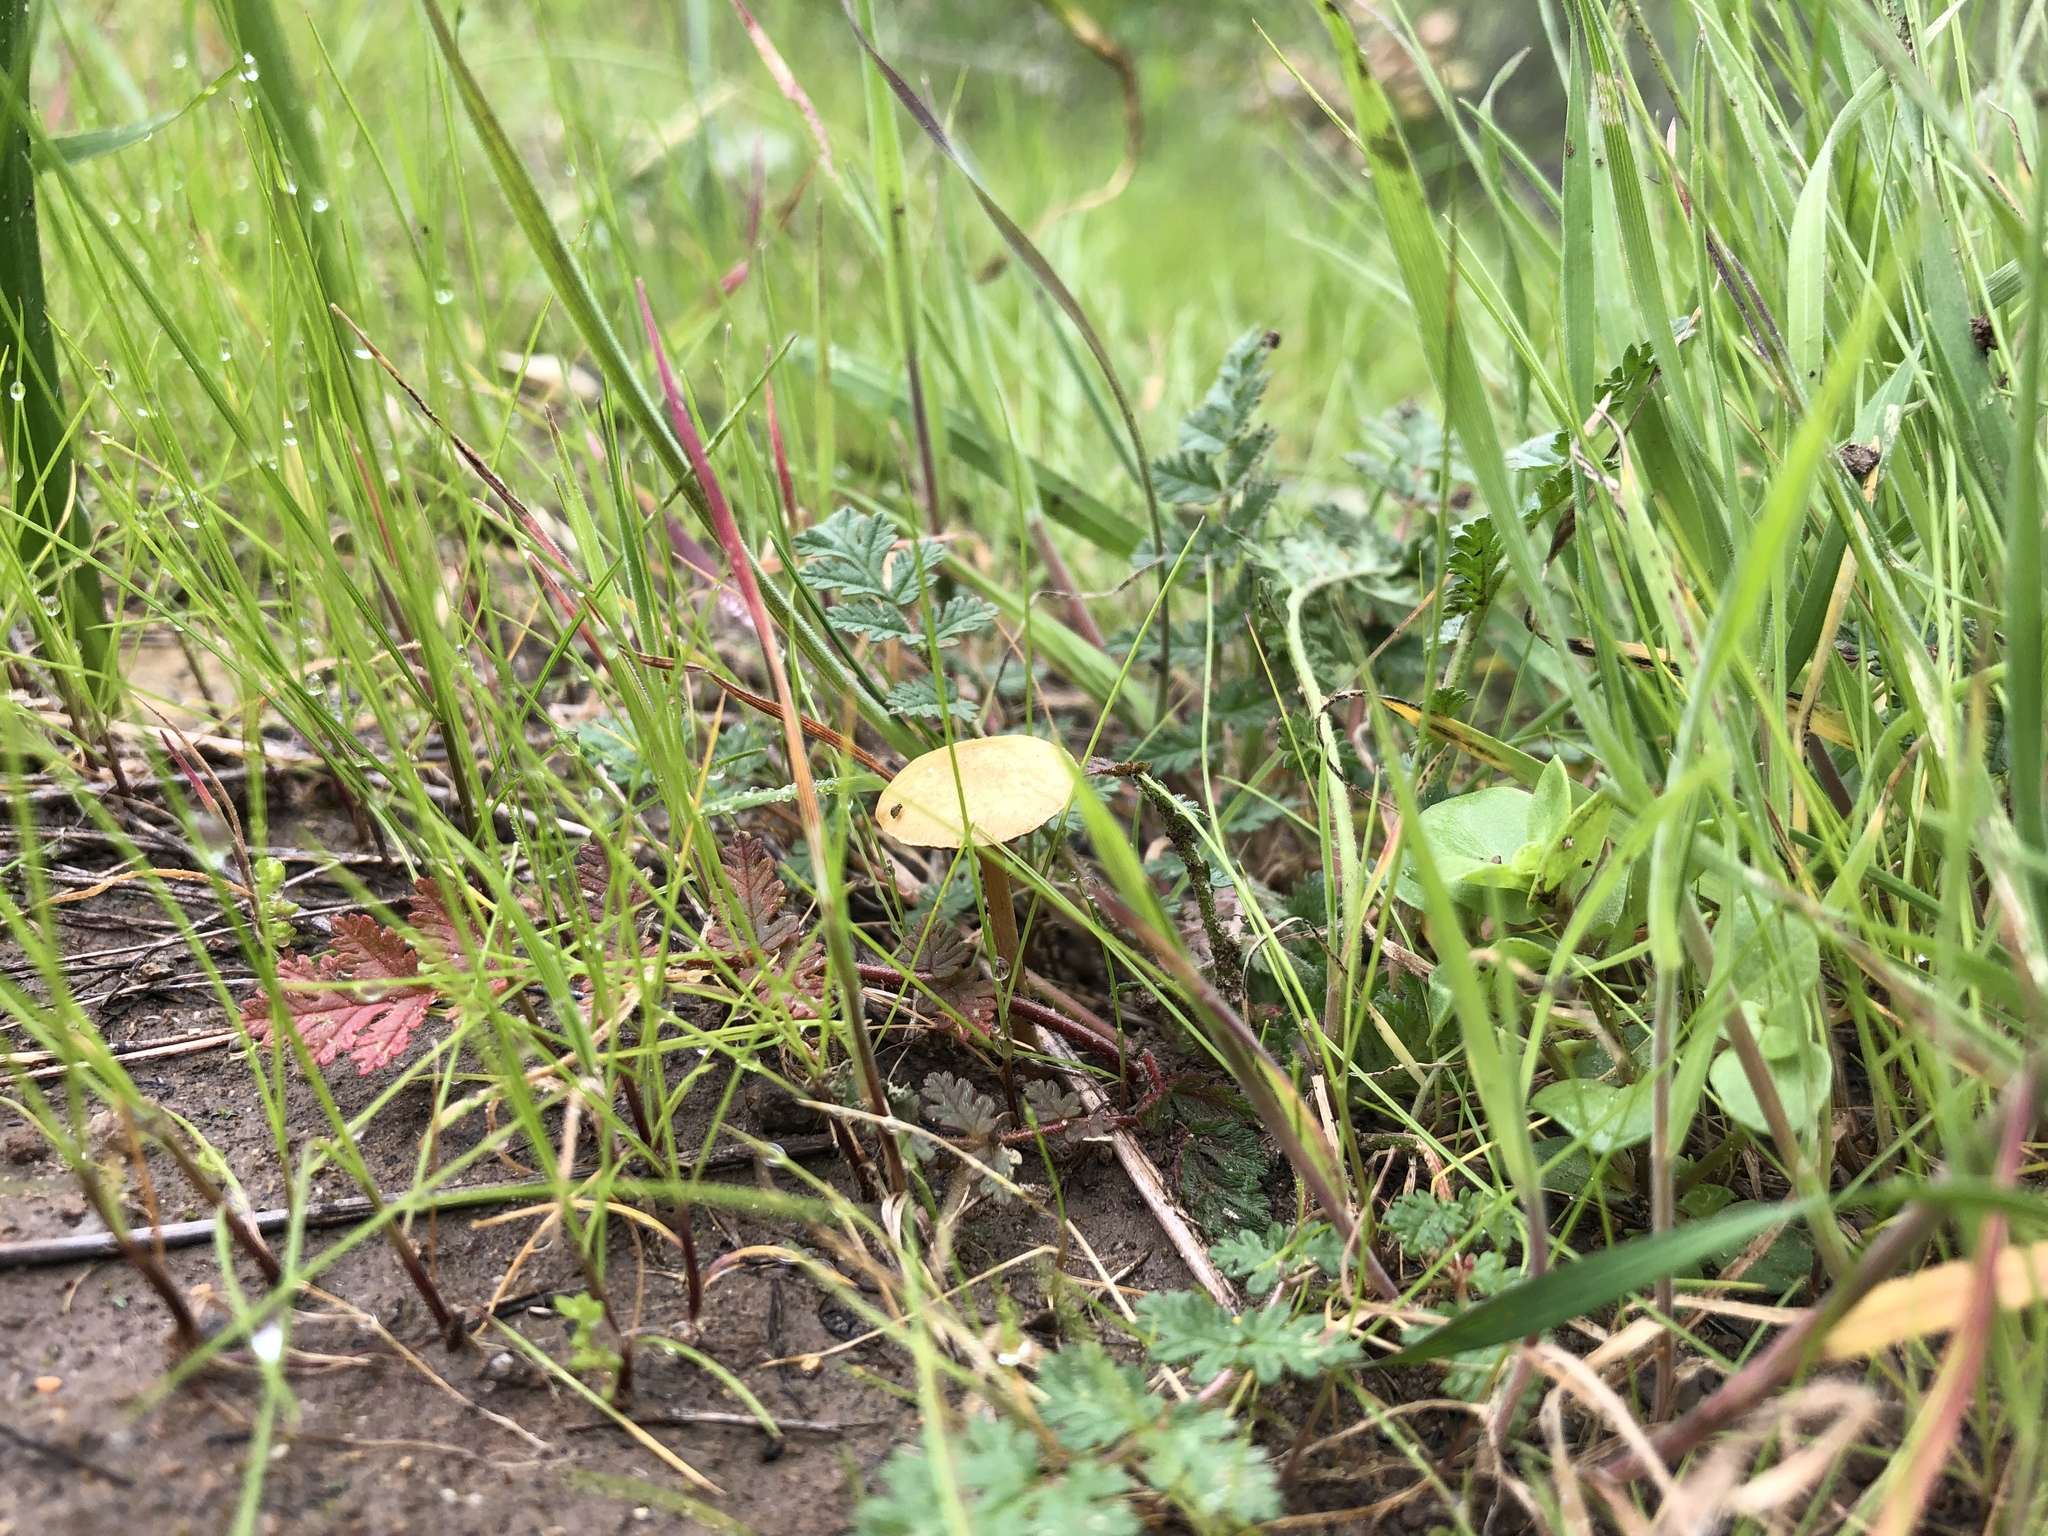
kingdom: Fungi
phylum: Basidiomycota
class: Agaricomycetes
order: Agaricales
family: Strophariaceae
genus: Agrocybe
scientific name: Agrocybe pediades
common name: Common fieldcap
